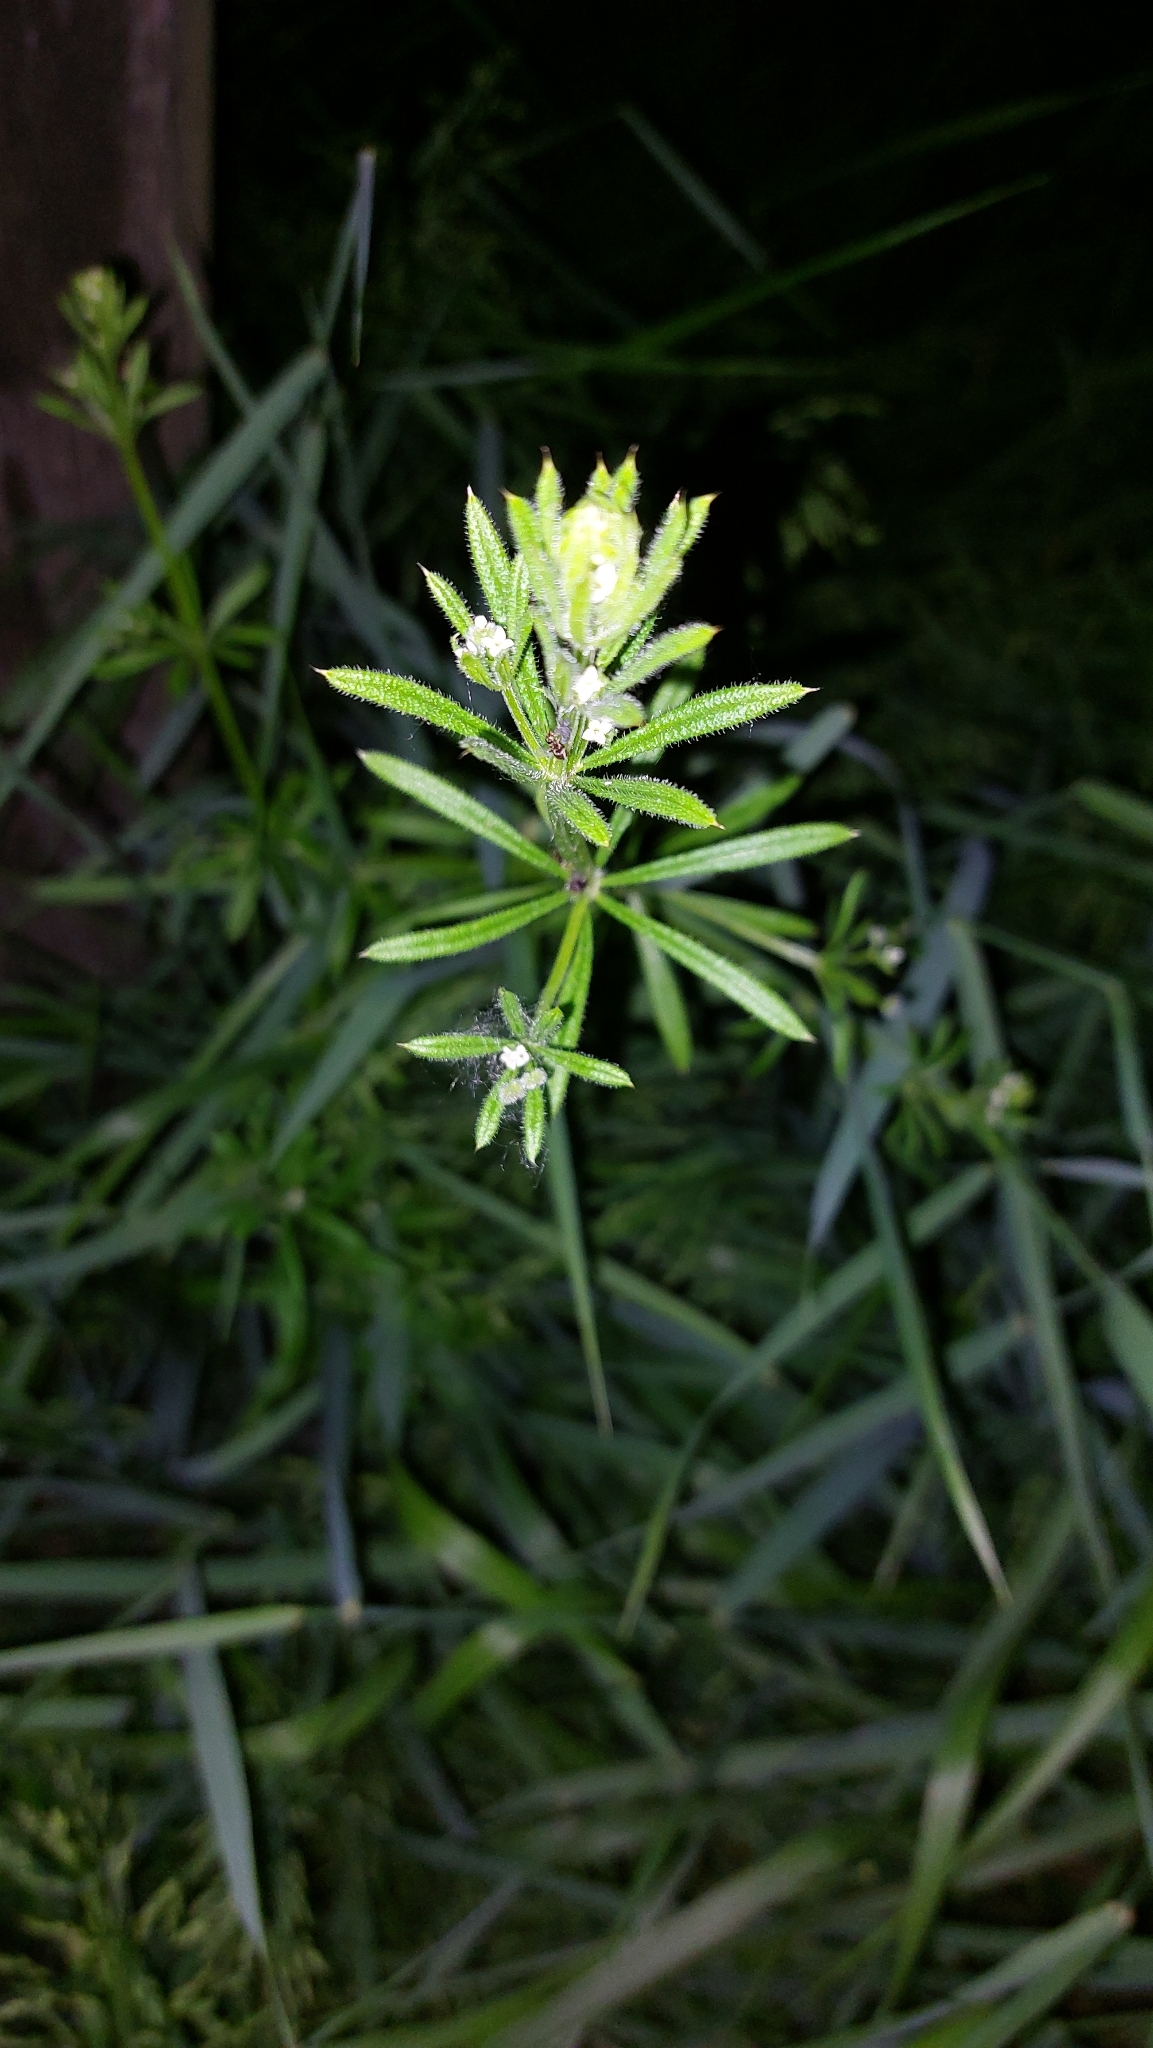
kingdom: Plantae
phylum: Tracheophyta
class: Magnoliopsida
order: Gentianales
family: Rubiaceae
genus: Galium
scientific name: Galium aparine
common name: Cleavers
